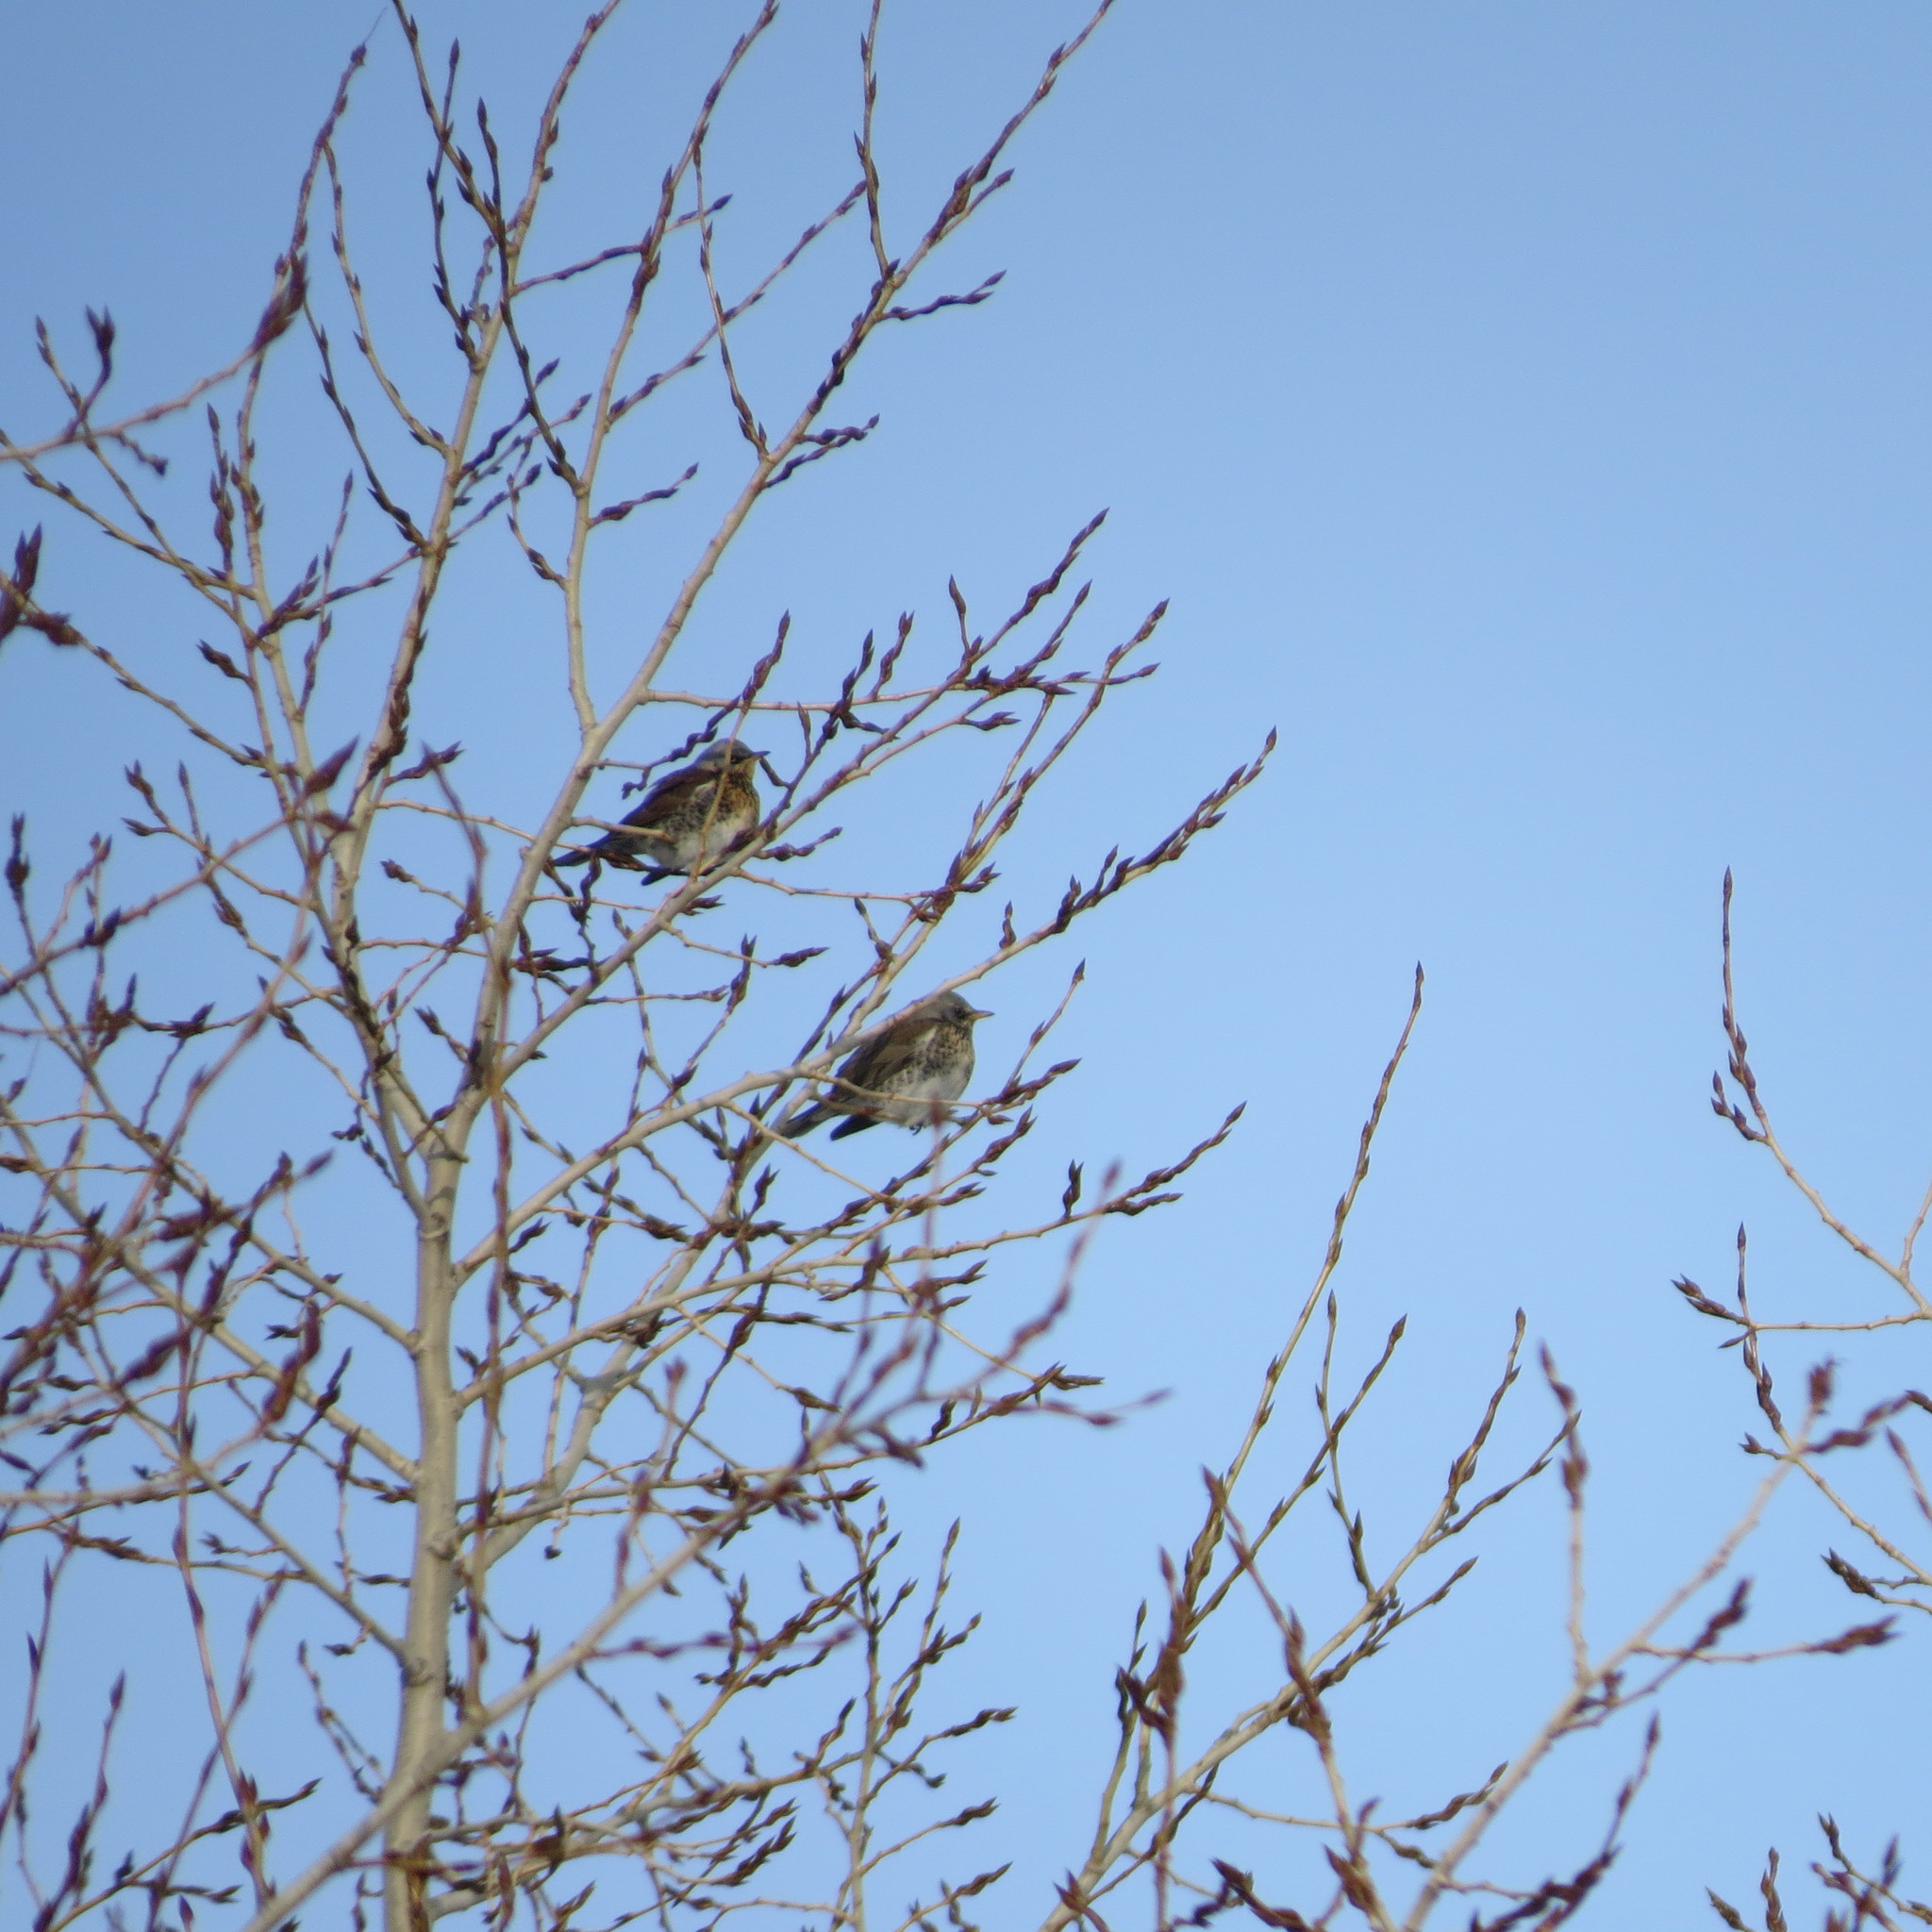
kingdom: Animalia
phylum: Chordata
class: Aves
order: Passeriformes
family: Turdidae
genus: Turdus
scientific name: Turdus pilaris
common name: Fieldfare
